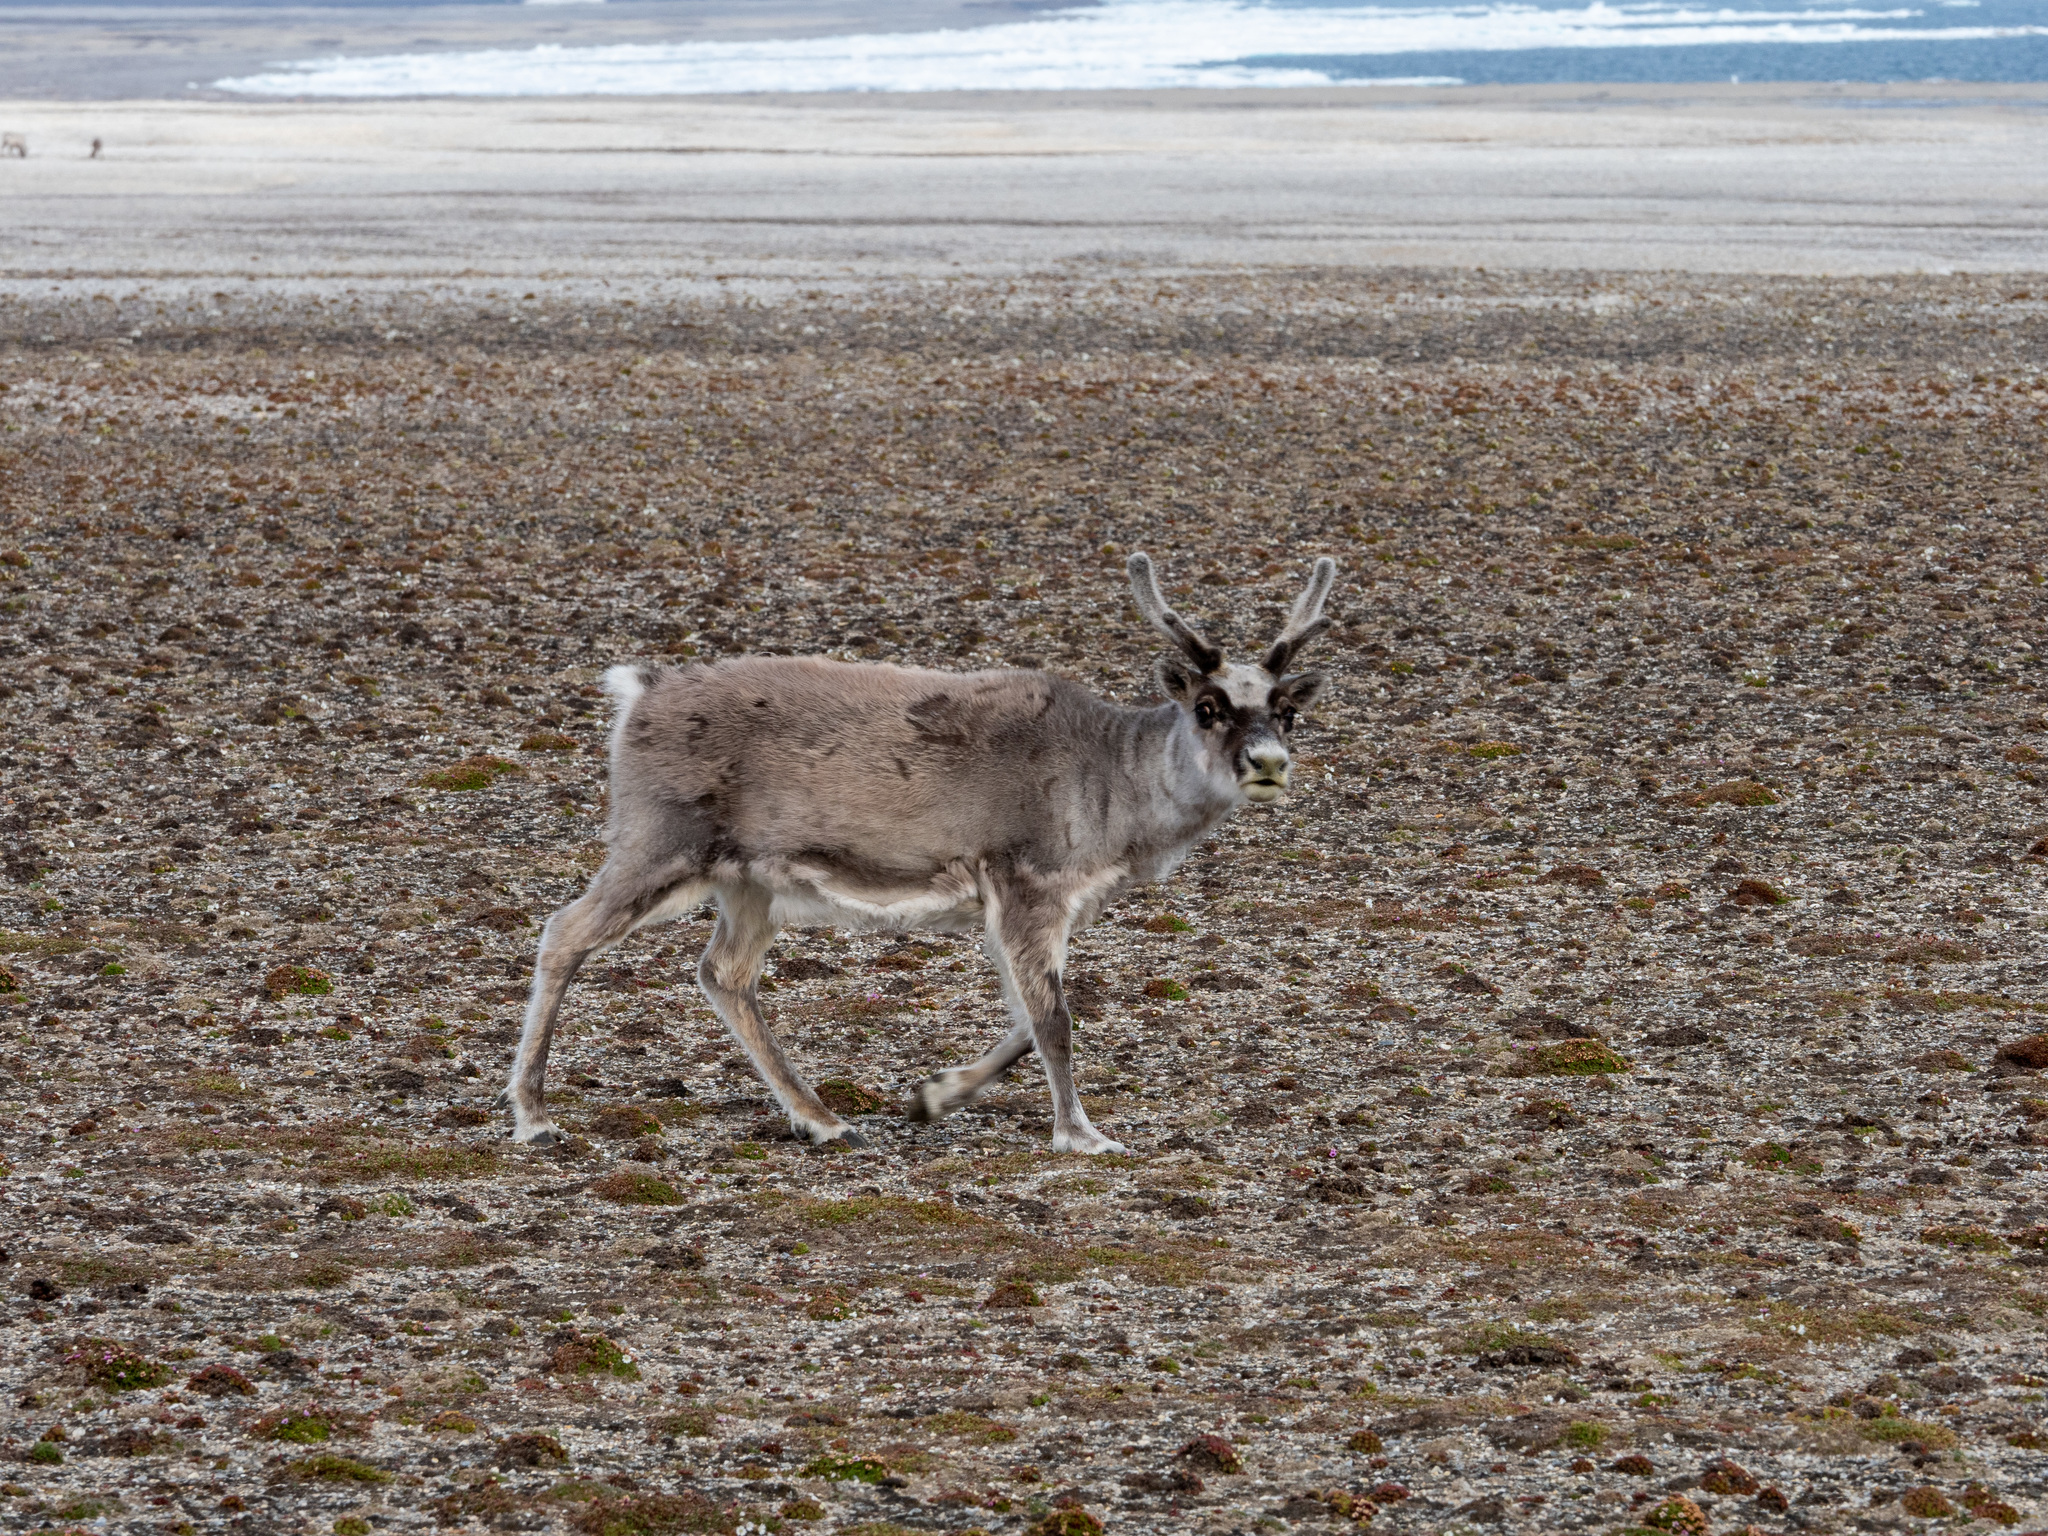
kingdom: Animalia
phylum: Chordata
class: Mammalia
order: Artiodactyla
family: Cervidae
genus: Rangifer
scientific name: Rangifer tarandus
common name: Reindeer
